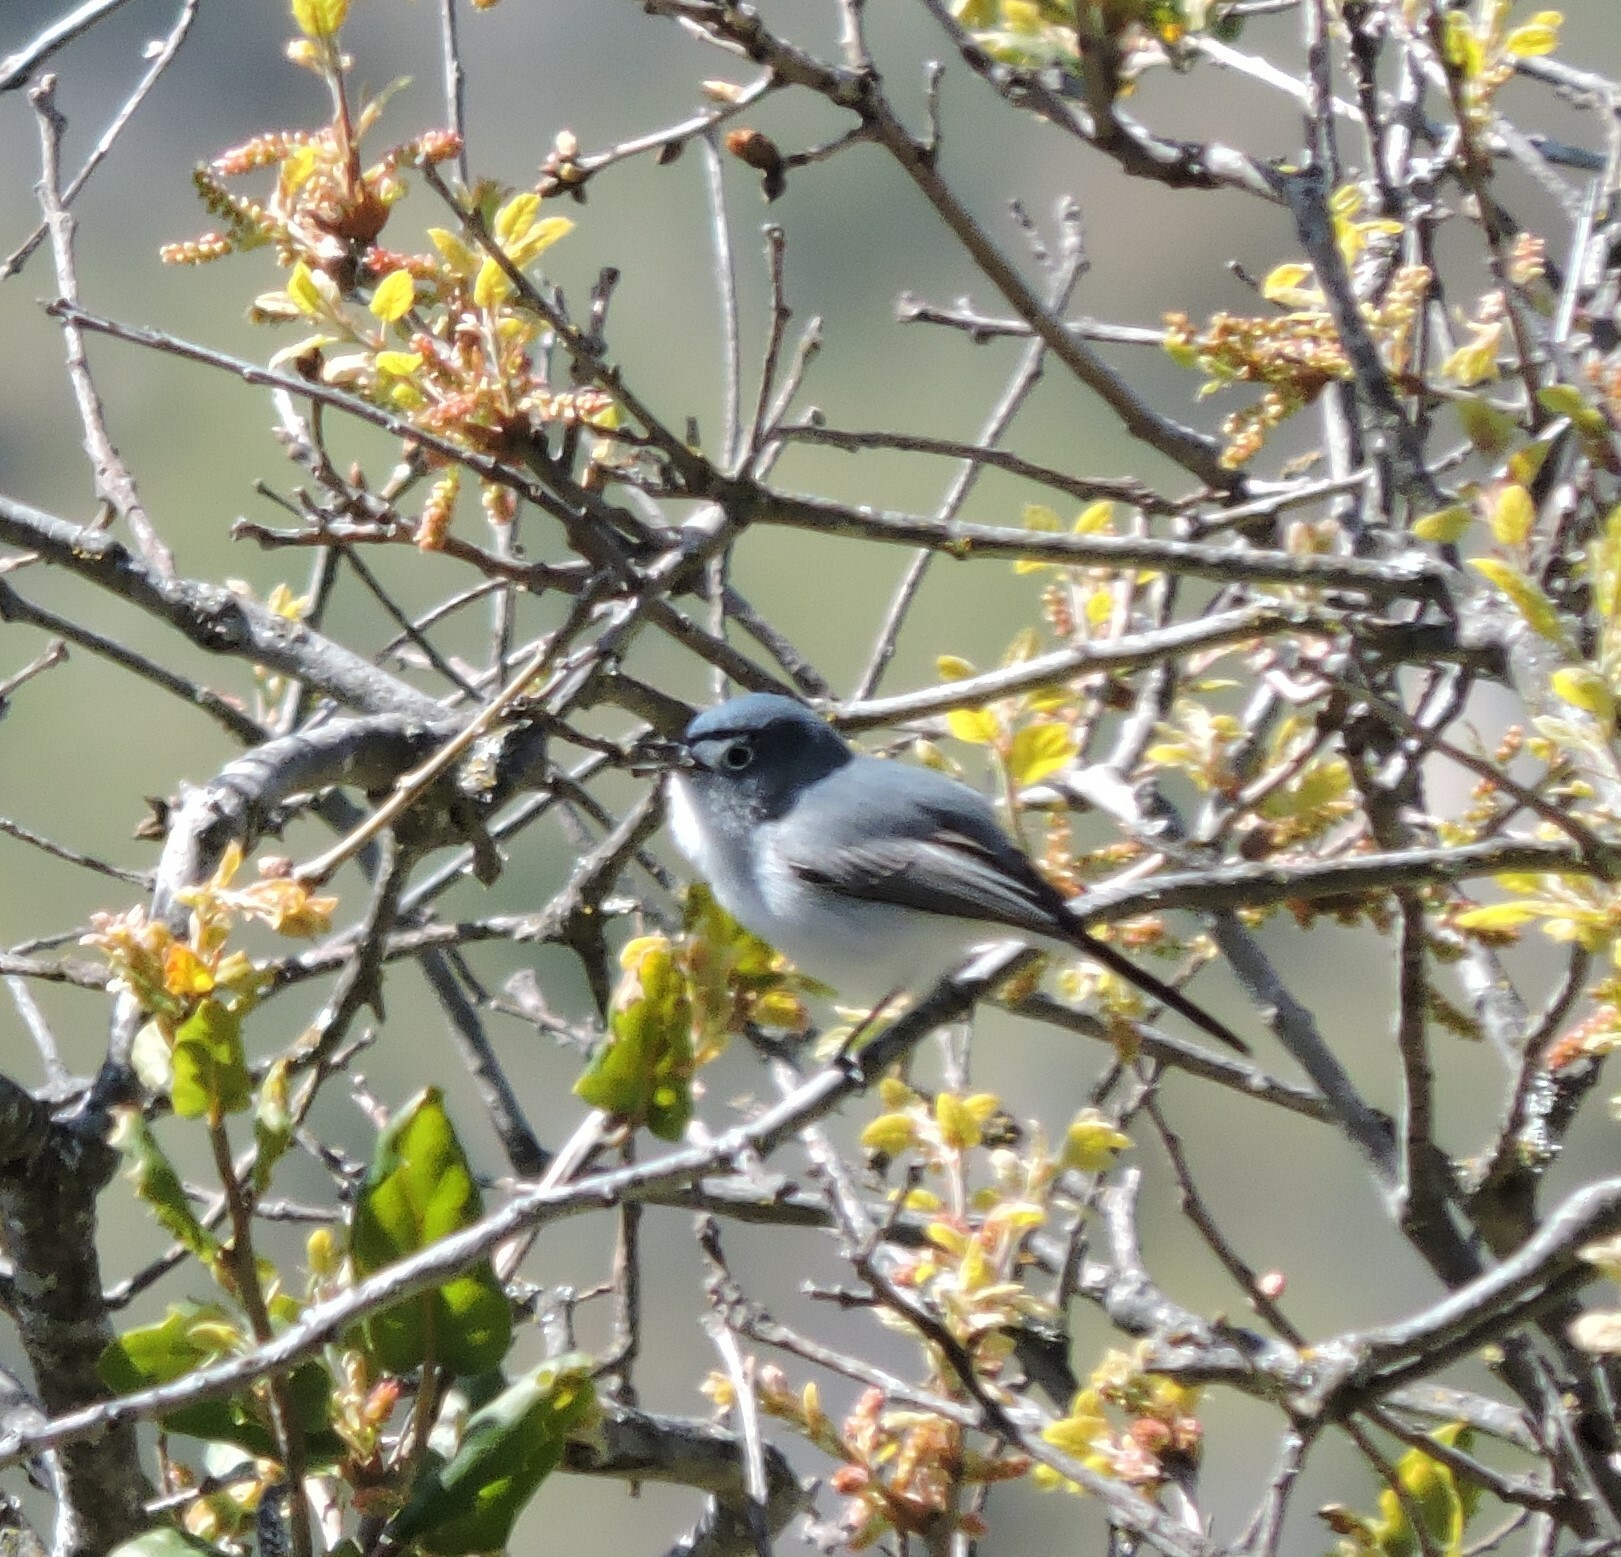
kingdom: Animalia
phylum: Chordata
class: Aves
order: Passeriformes
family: Polioptilidae
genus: Polioptila
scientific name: Polioptila caerulea
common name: Blue-gray gnatcatcher
